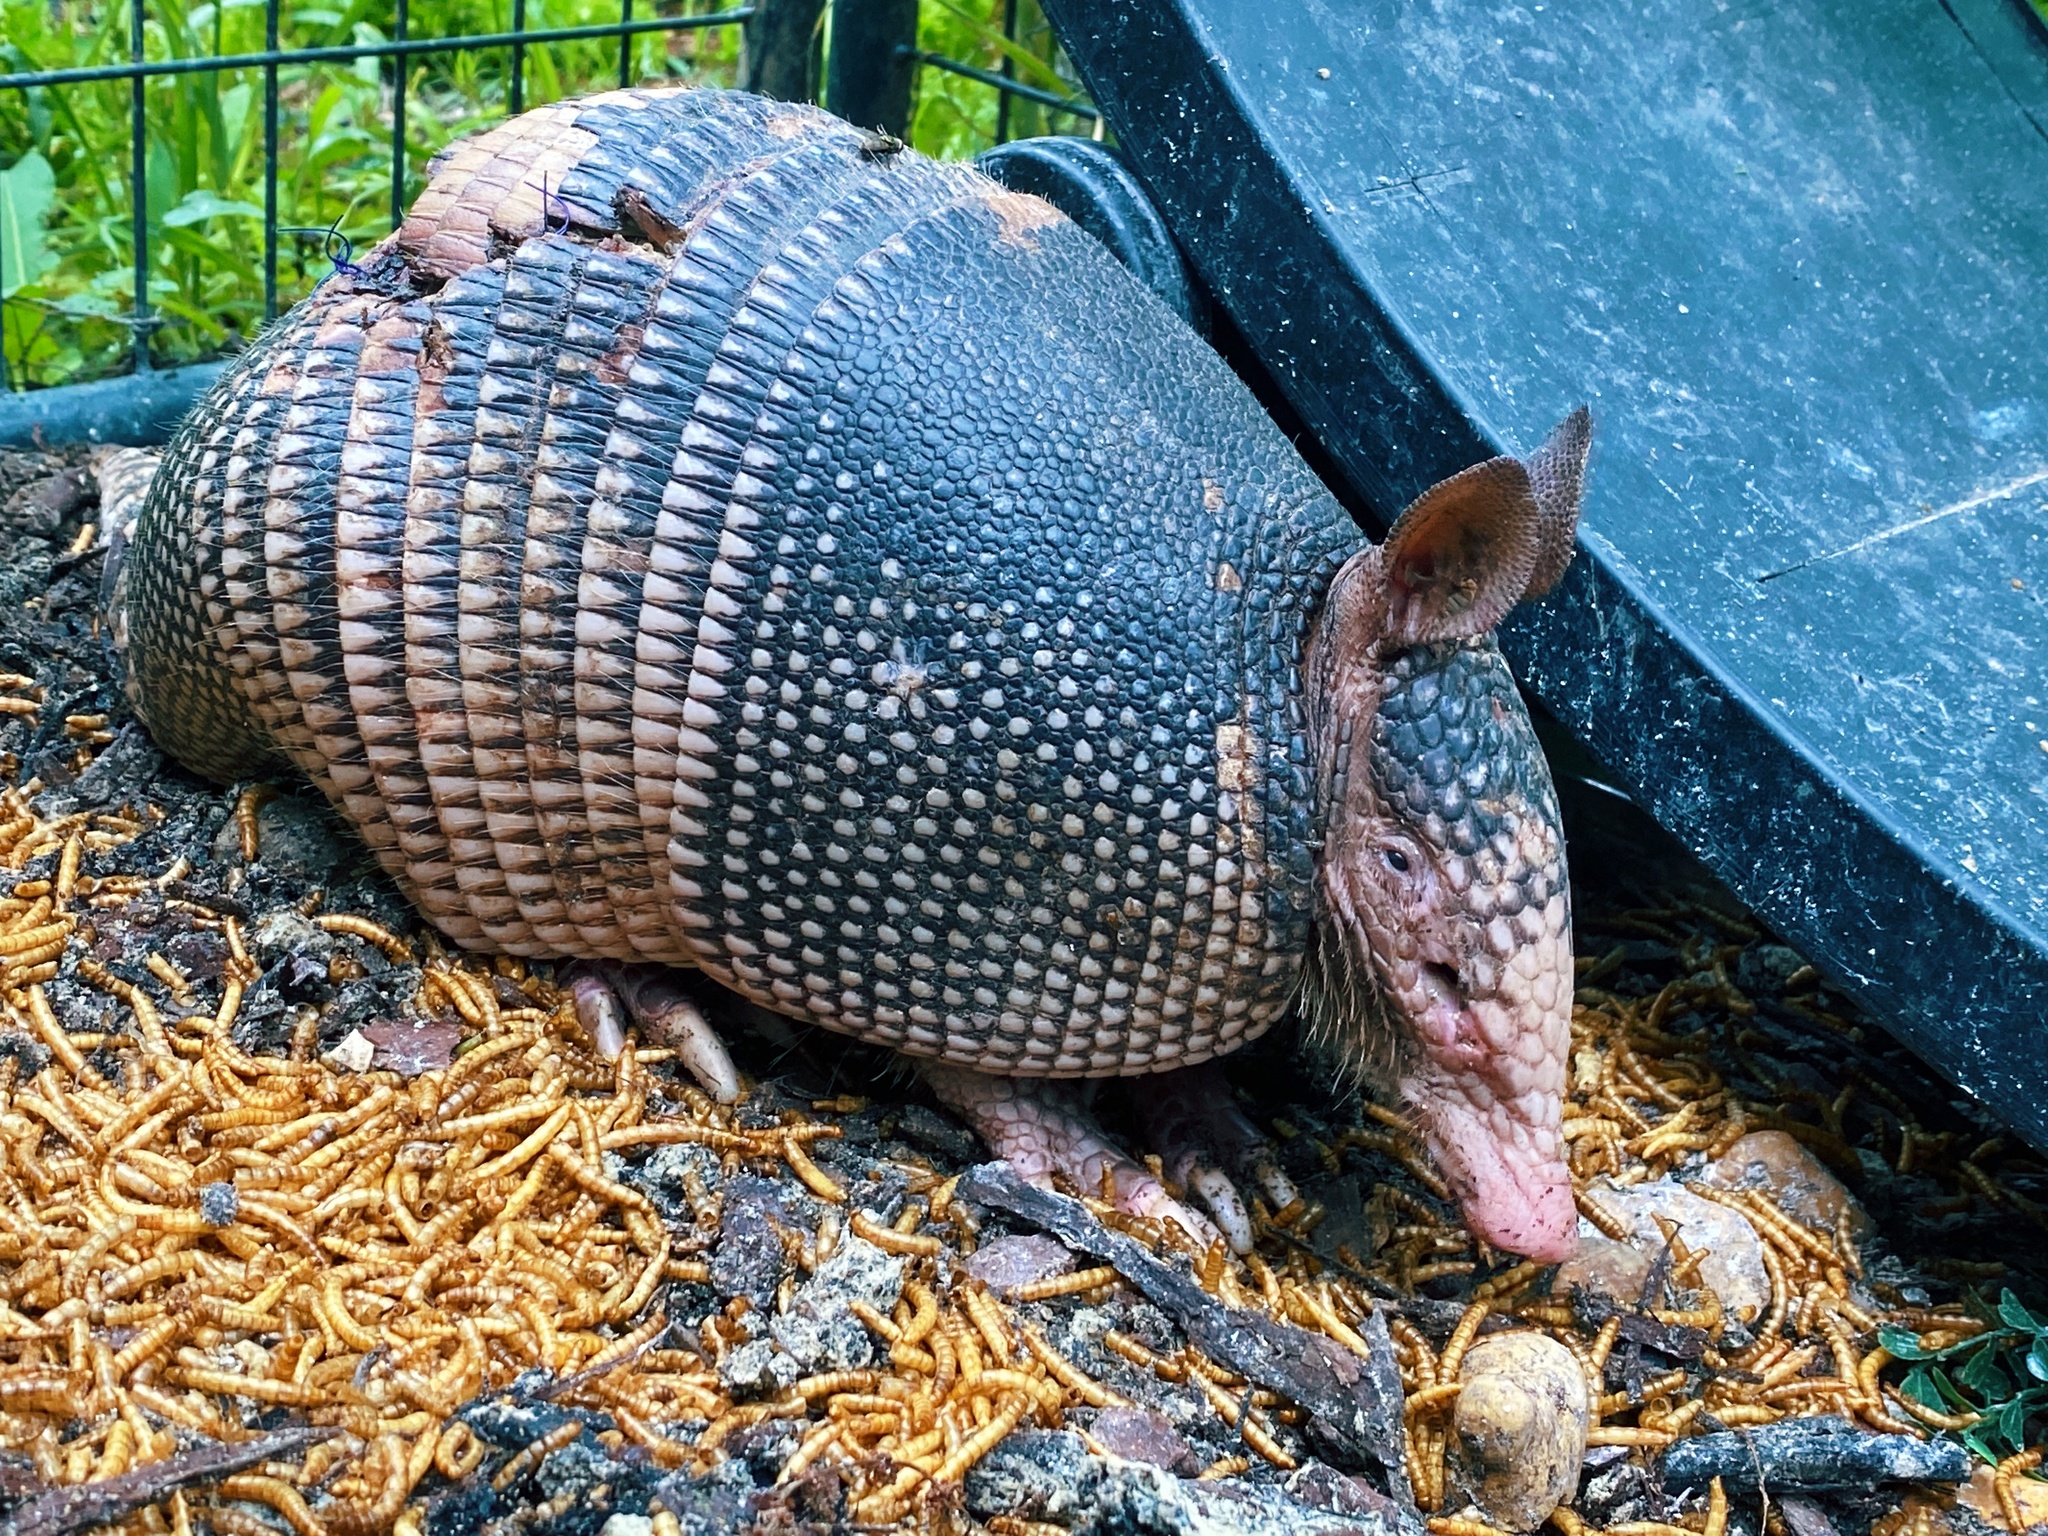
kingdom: Animalia
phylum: Chordata
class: Mammalia
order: Cingulata
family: Dasypodidae
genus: Dasypus
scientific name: Dasypus novemcinctus
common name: Nine-banded armadillo
